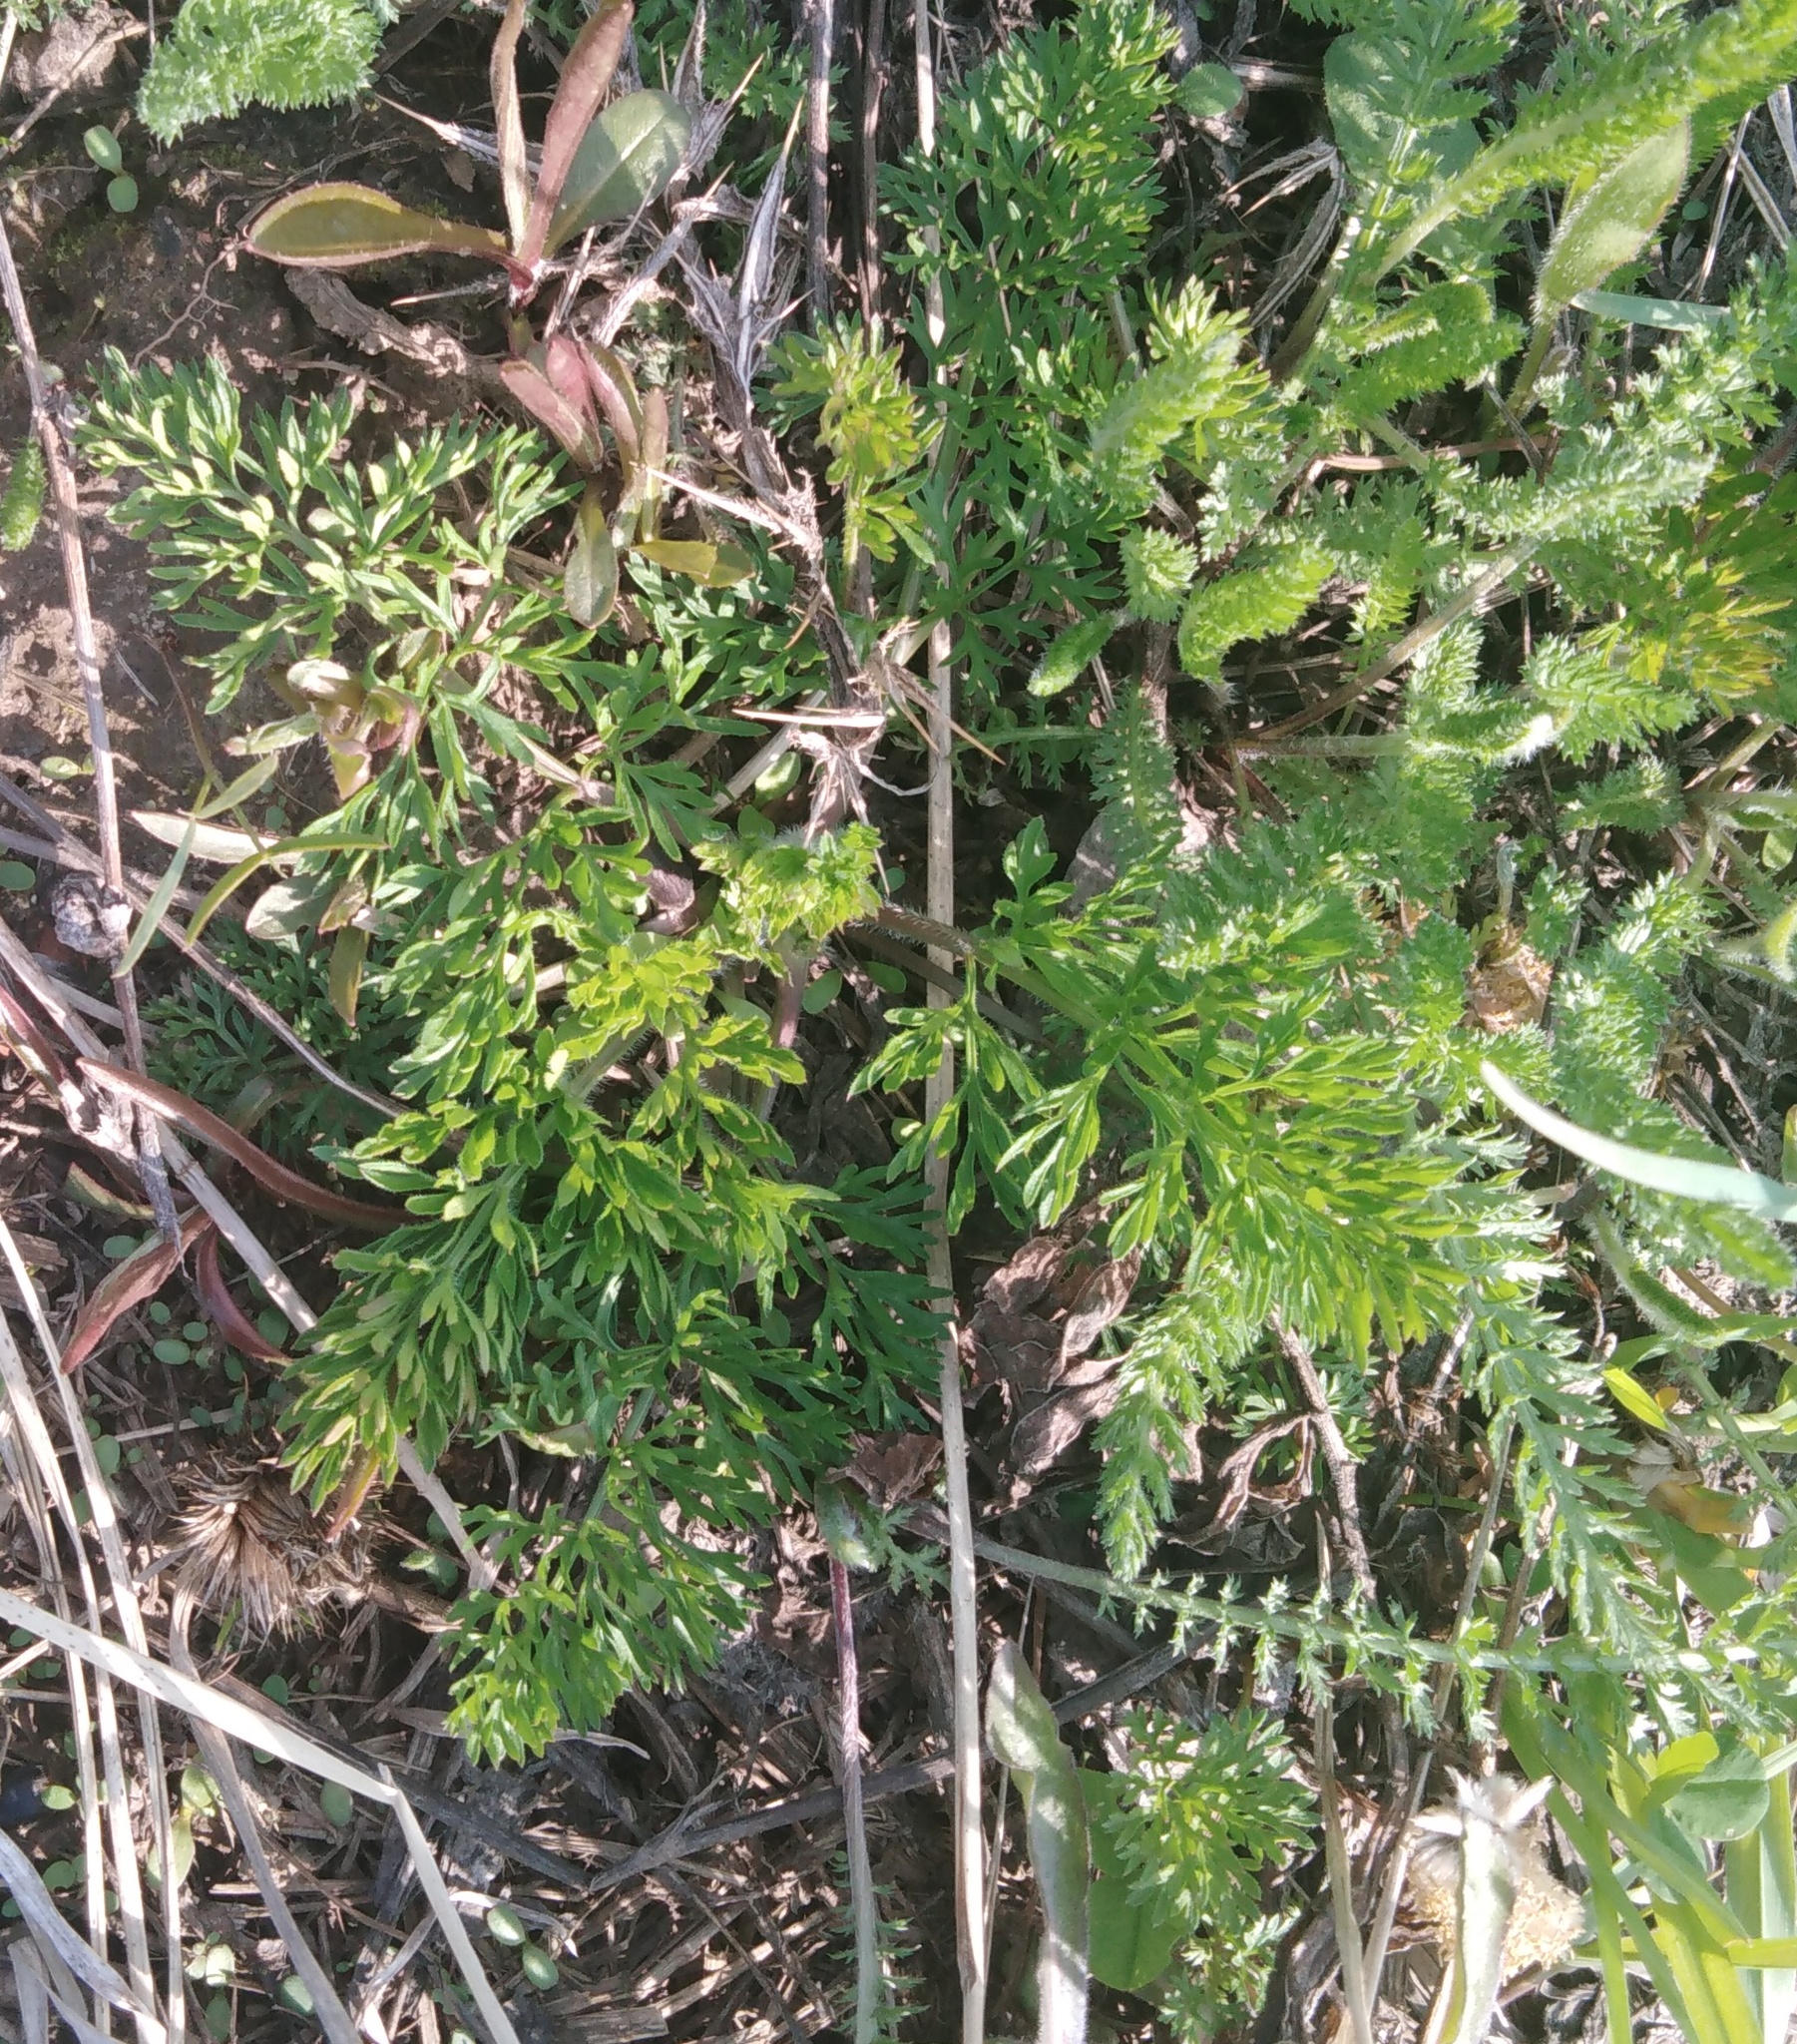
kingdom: Plantae
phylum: Tracheophyta
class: Magnoliopsida
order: Apiales
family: Apiaceae
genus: Daucus
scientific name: Daucus carota
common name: Wild carrot
